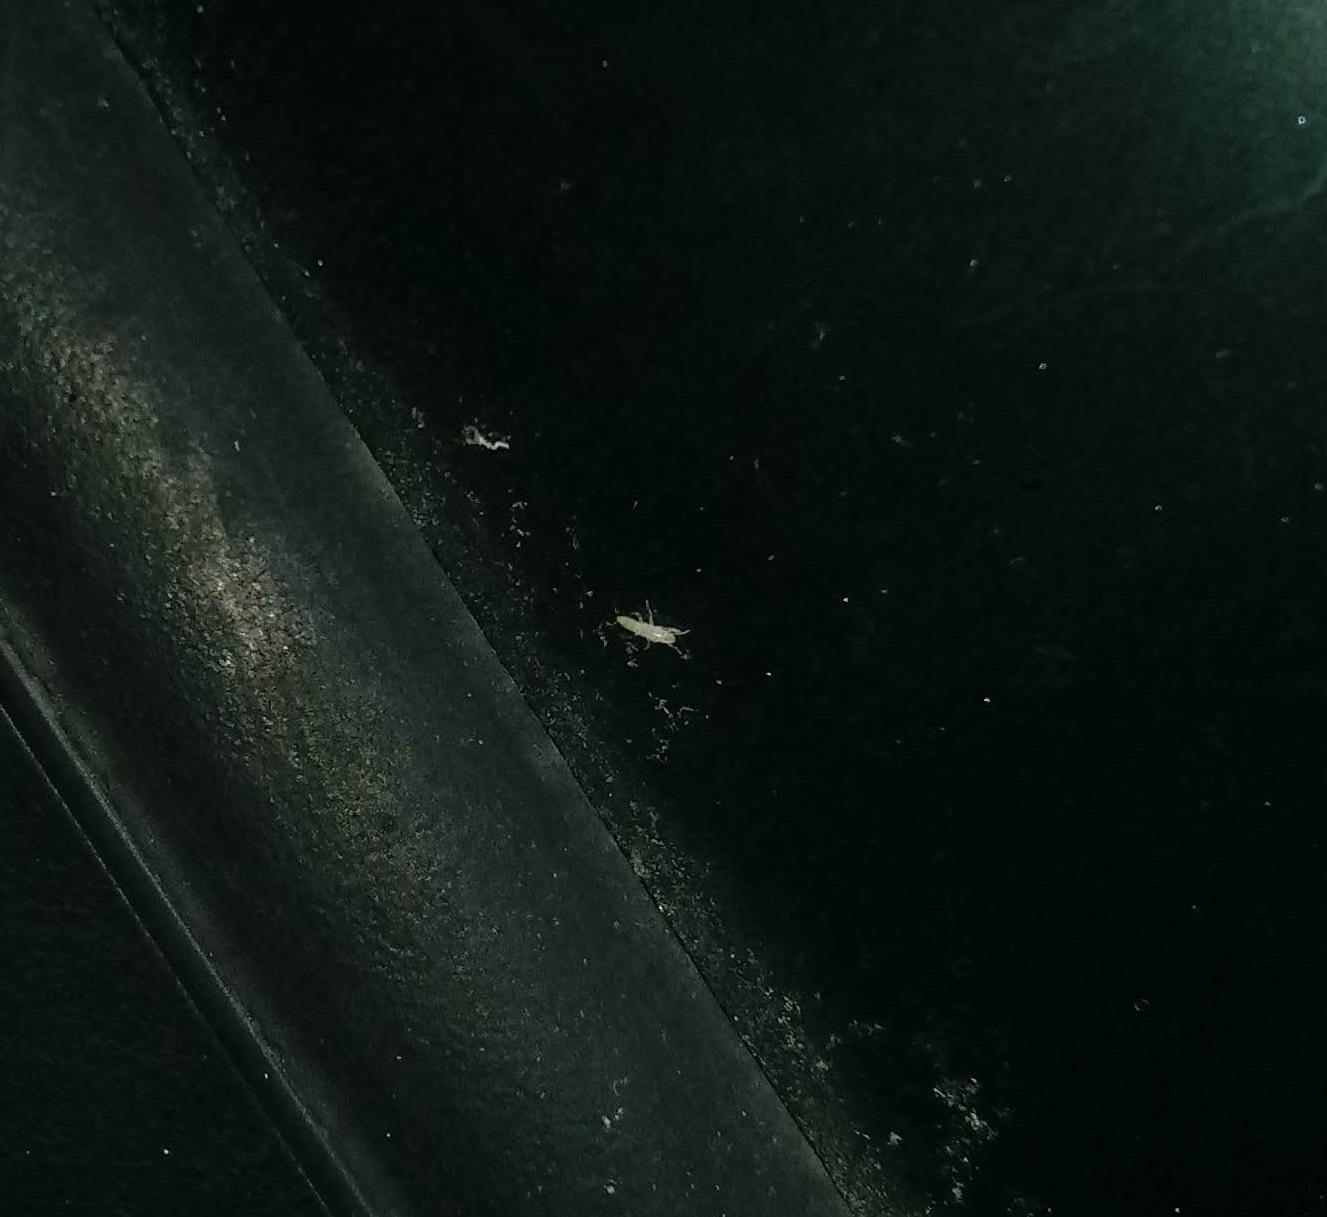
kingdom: Animalia
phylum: Arthropoda
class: Insecta
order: Hemiptera
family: Cicadidae
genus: Magicicada
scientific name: Magicicada
